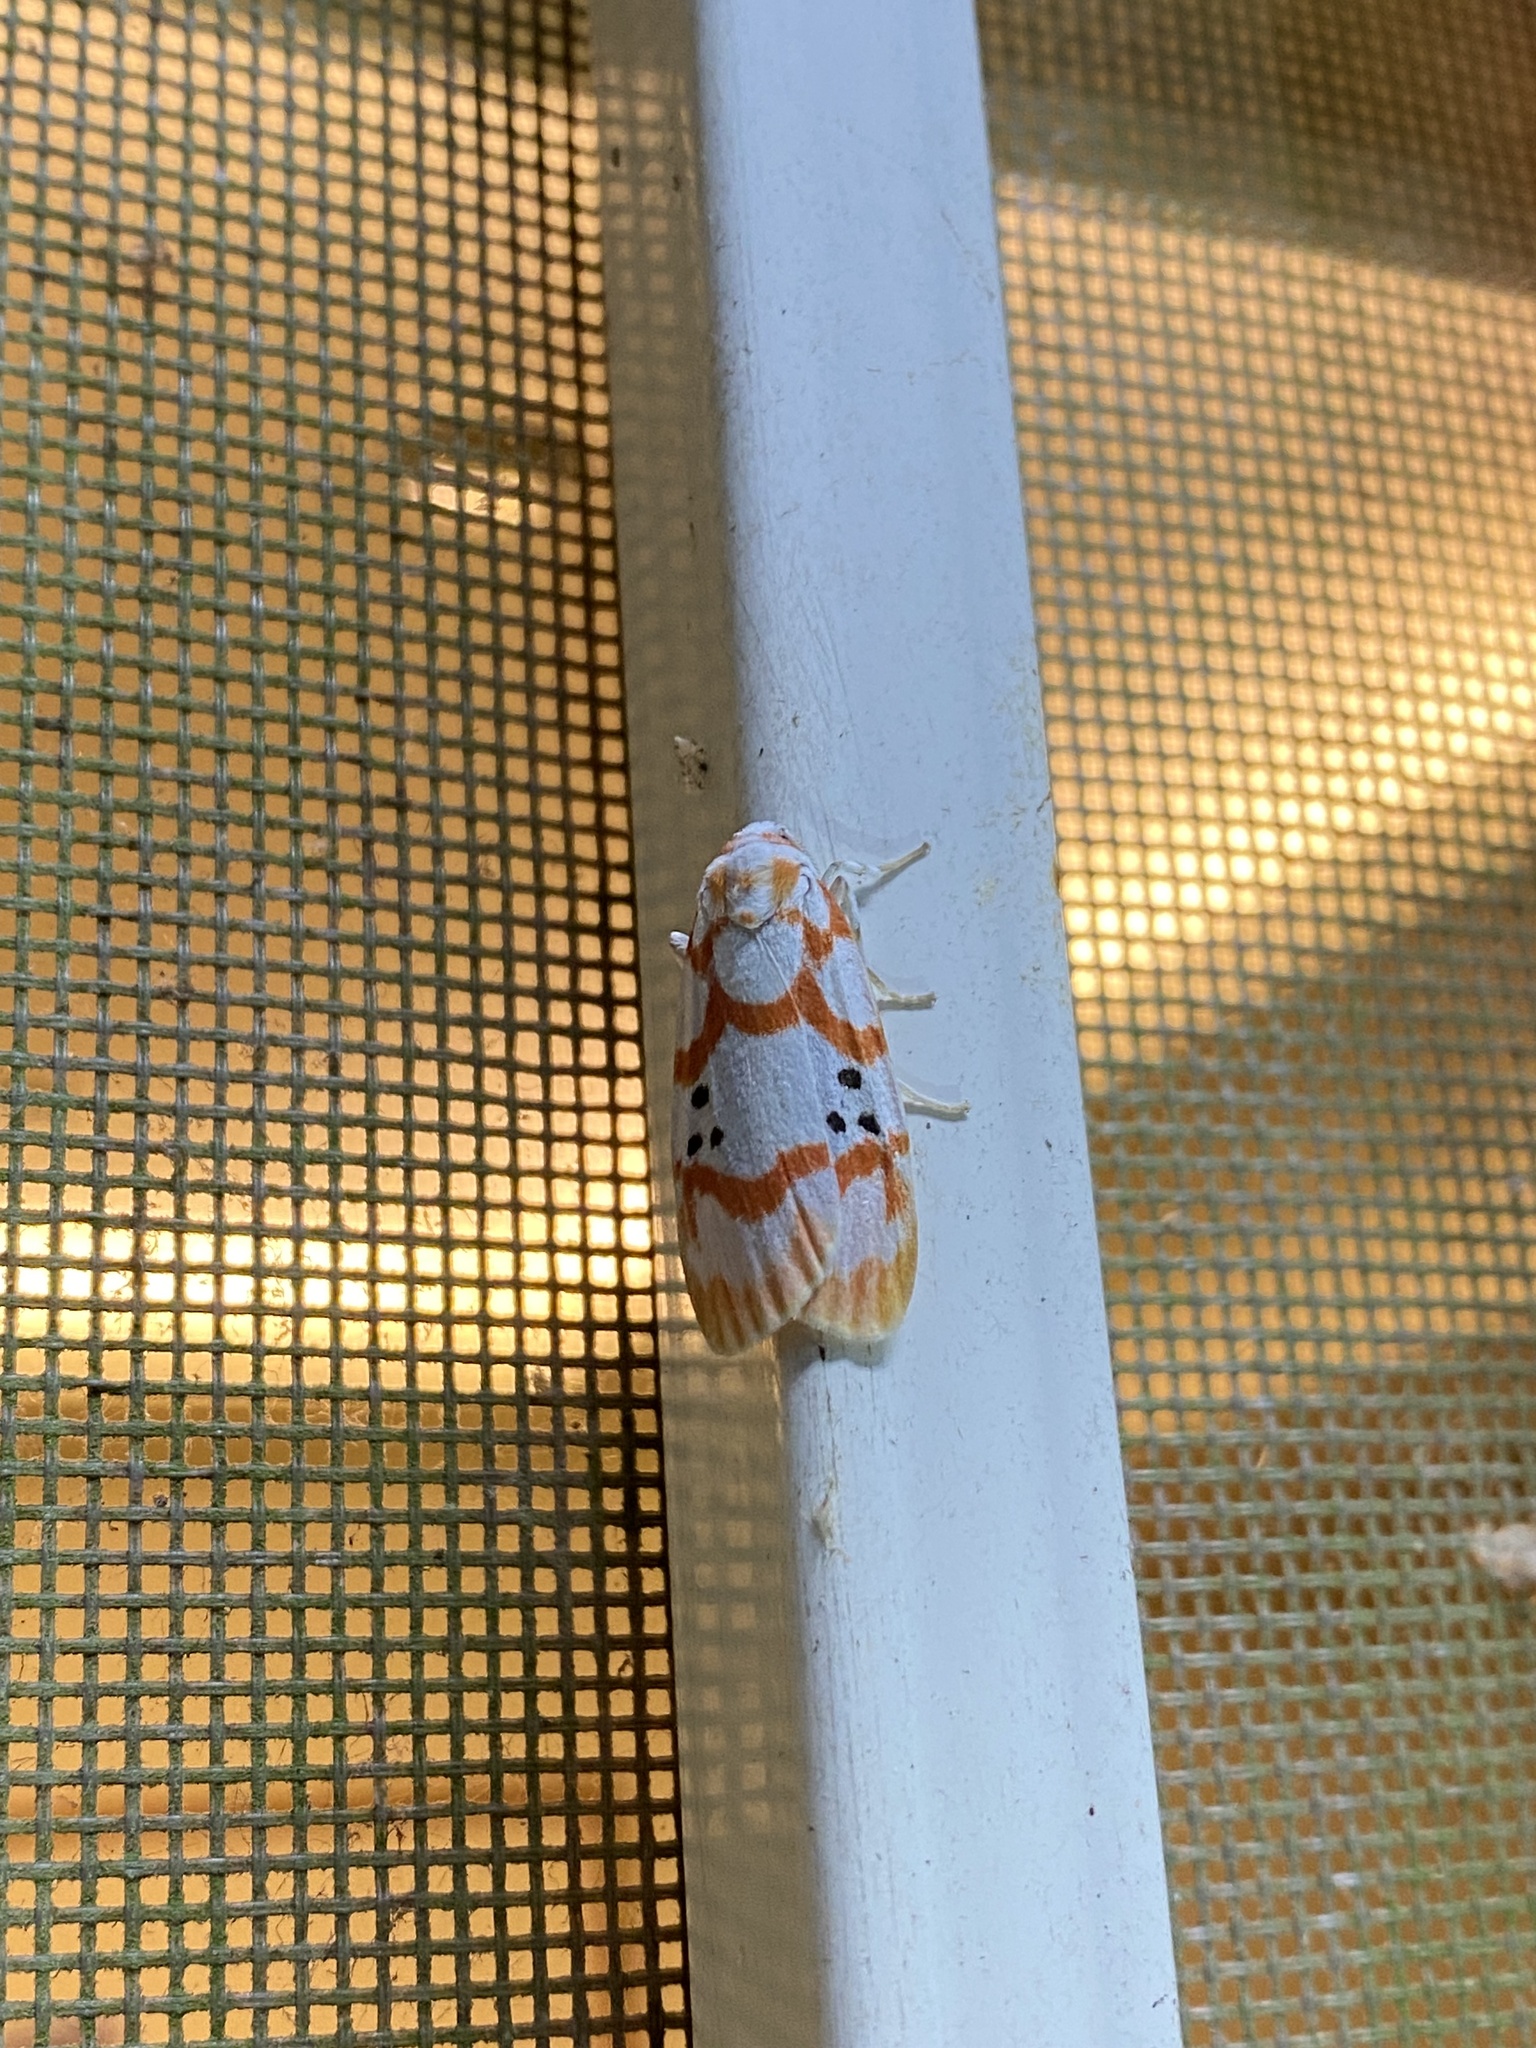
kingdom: Animalia
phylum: Arthropoda
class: Insecta
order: Lepidoptera
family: Erebidae
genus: Cyana
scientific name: Cyana formosana
